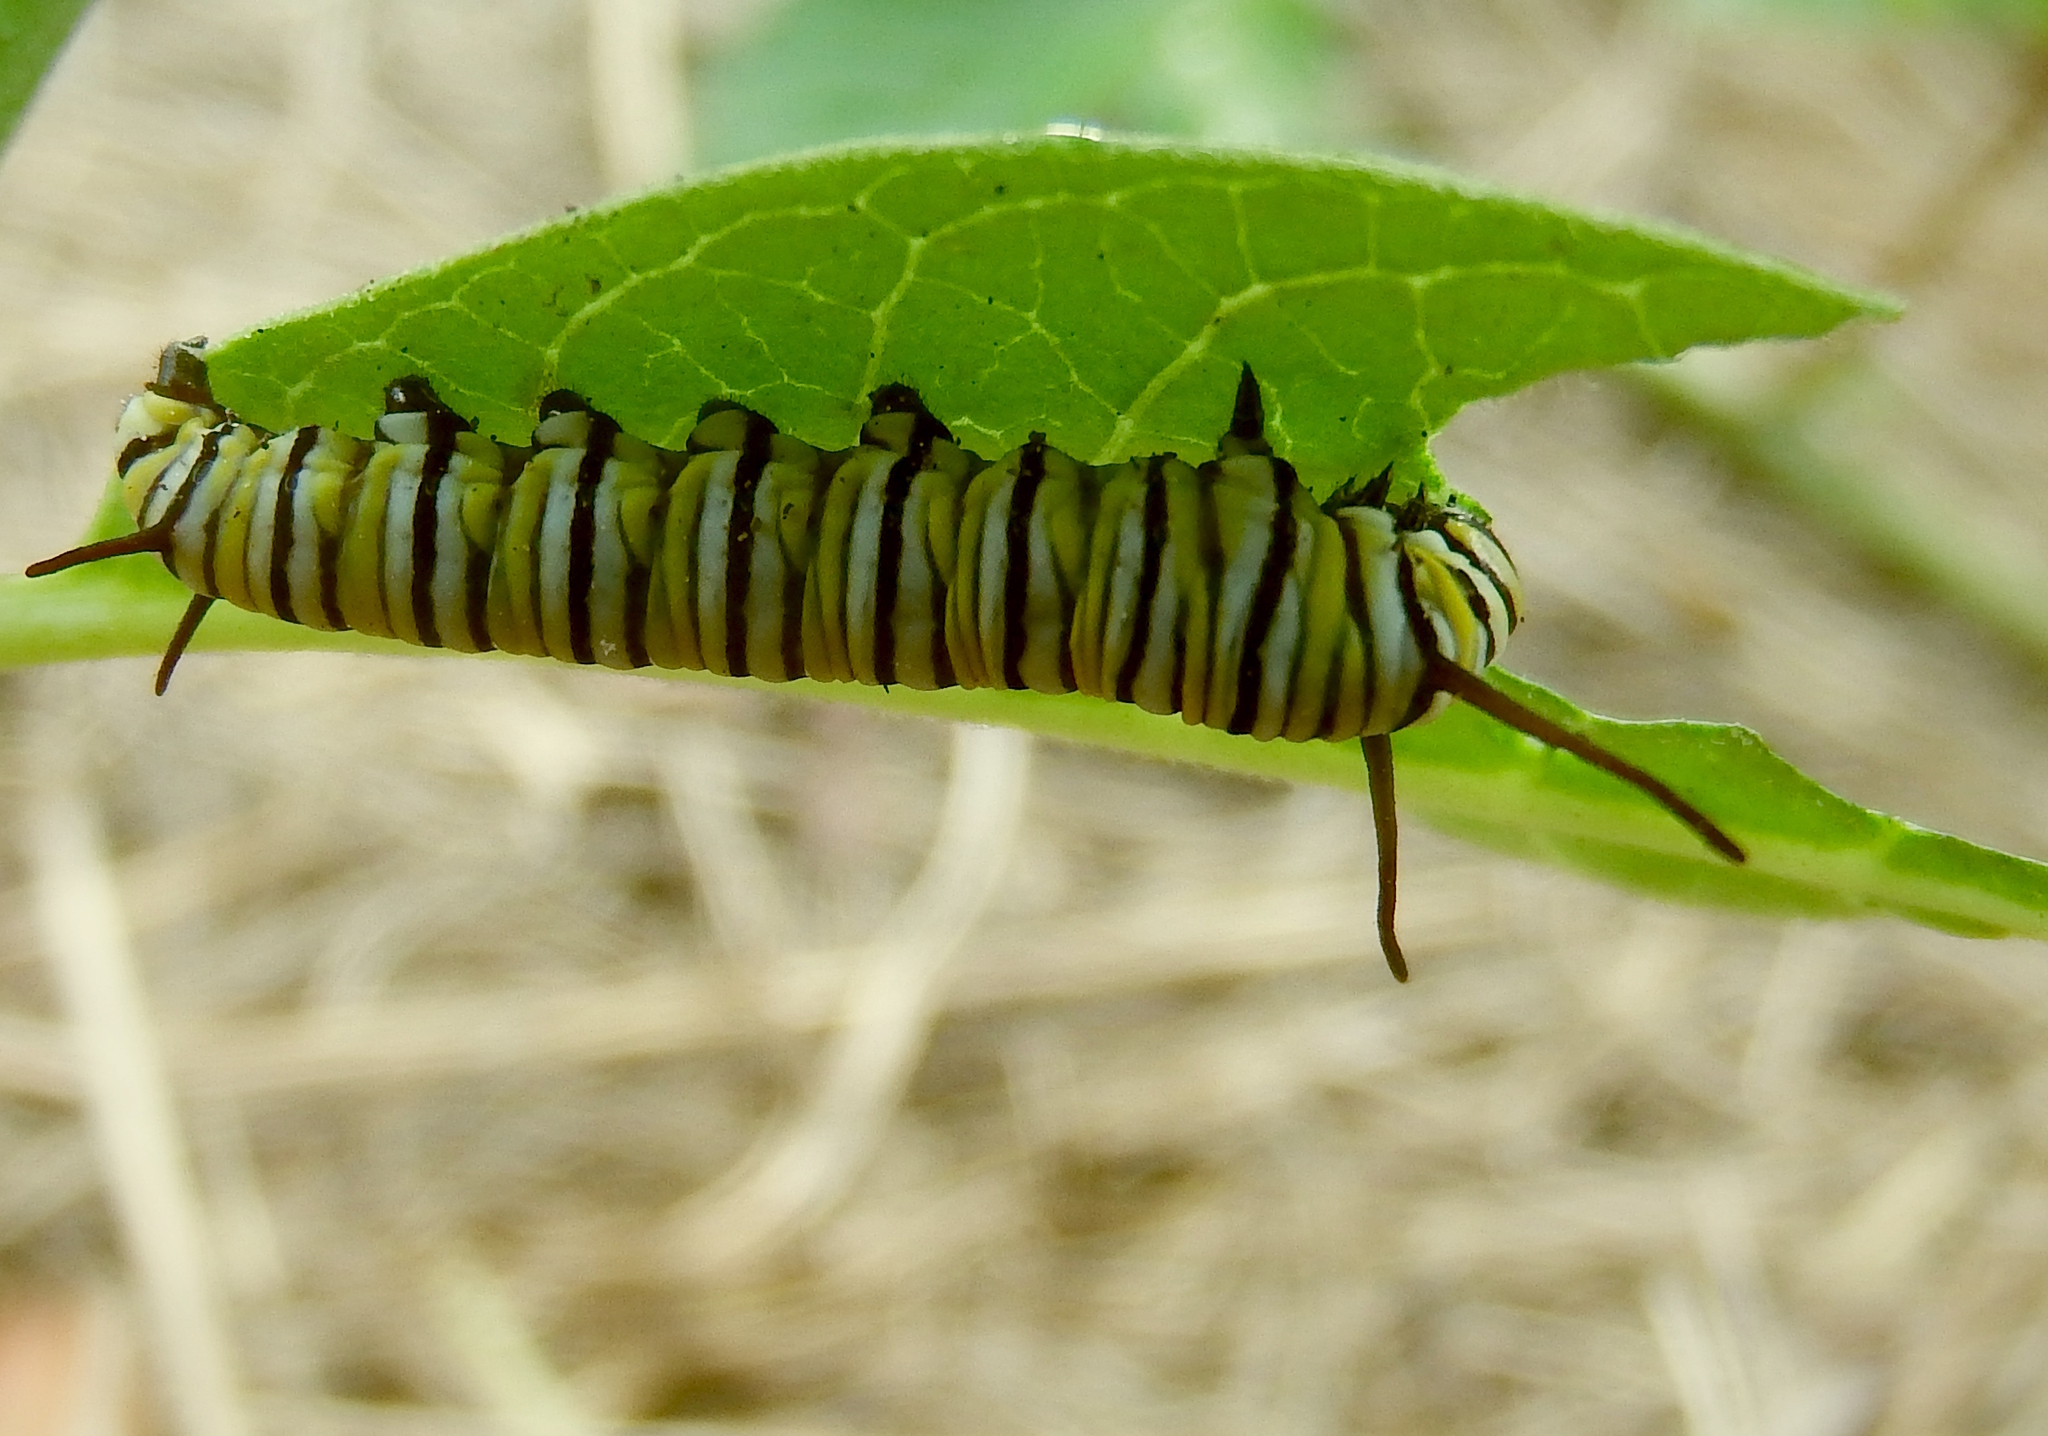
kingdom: Animalia
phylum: Arthropoda
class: Insecta
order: Lepidoptera
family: Nymphalidae
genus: Danaus
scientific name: Danaus plexippus
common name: Monarch
